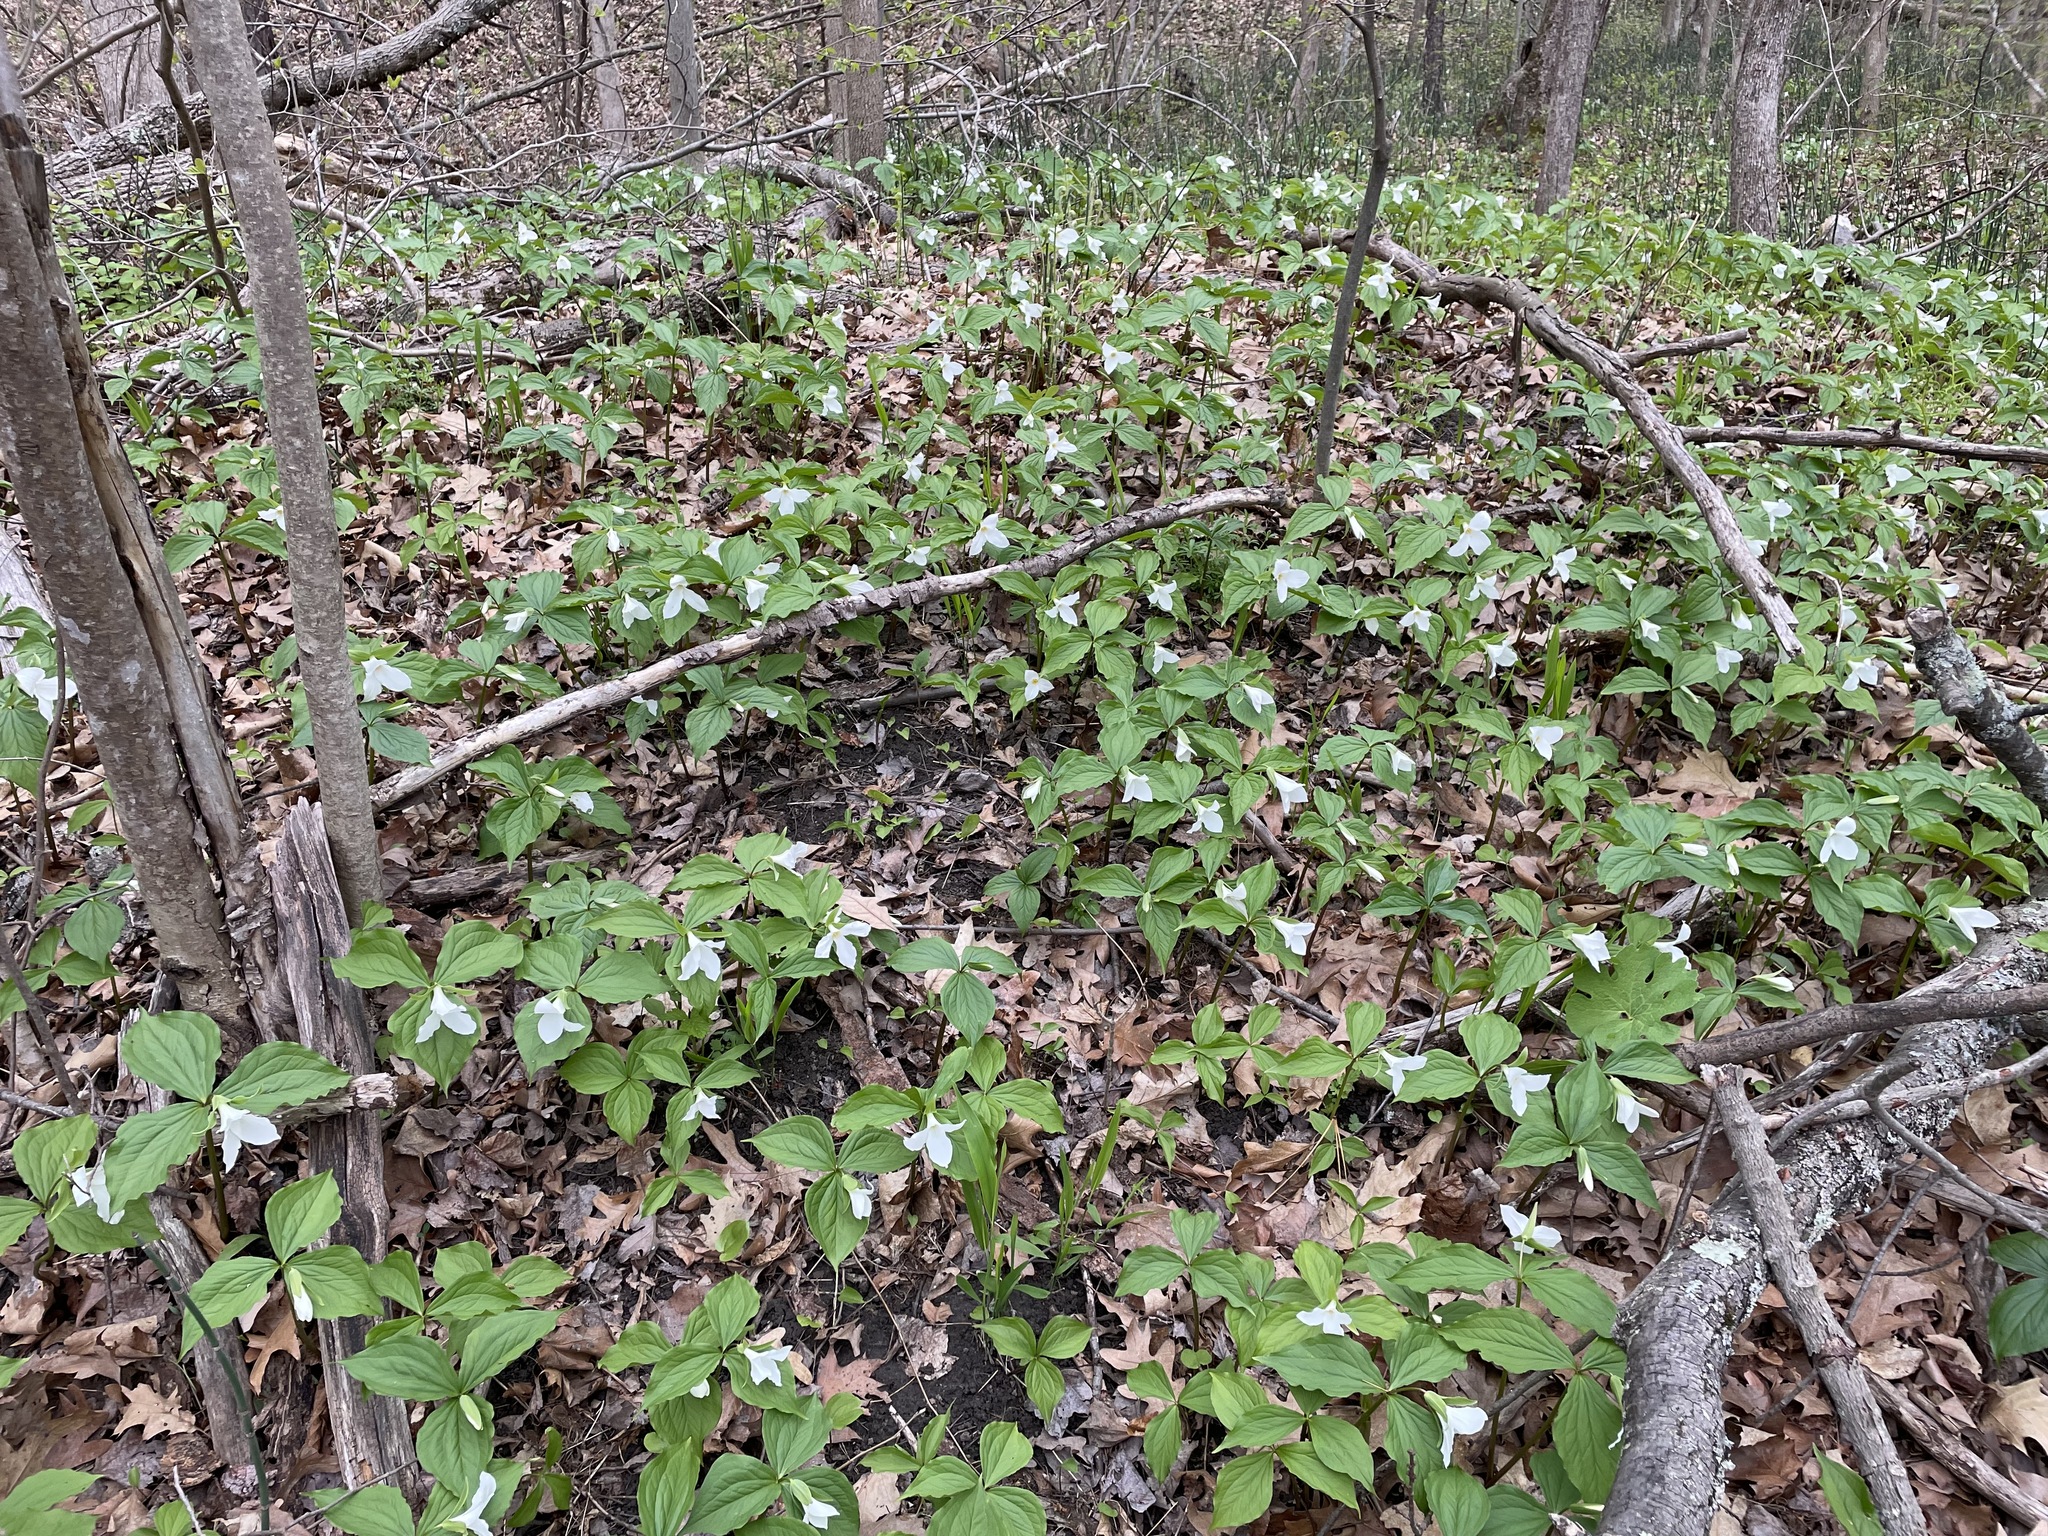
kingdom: Plantae
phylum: Tracheophyta
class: Liliopsida
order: Liliales
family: Melanthiaceae
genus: Trillium
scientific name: Trillium grandiflorum
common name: Great white trillium
